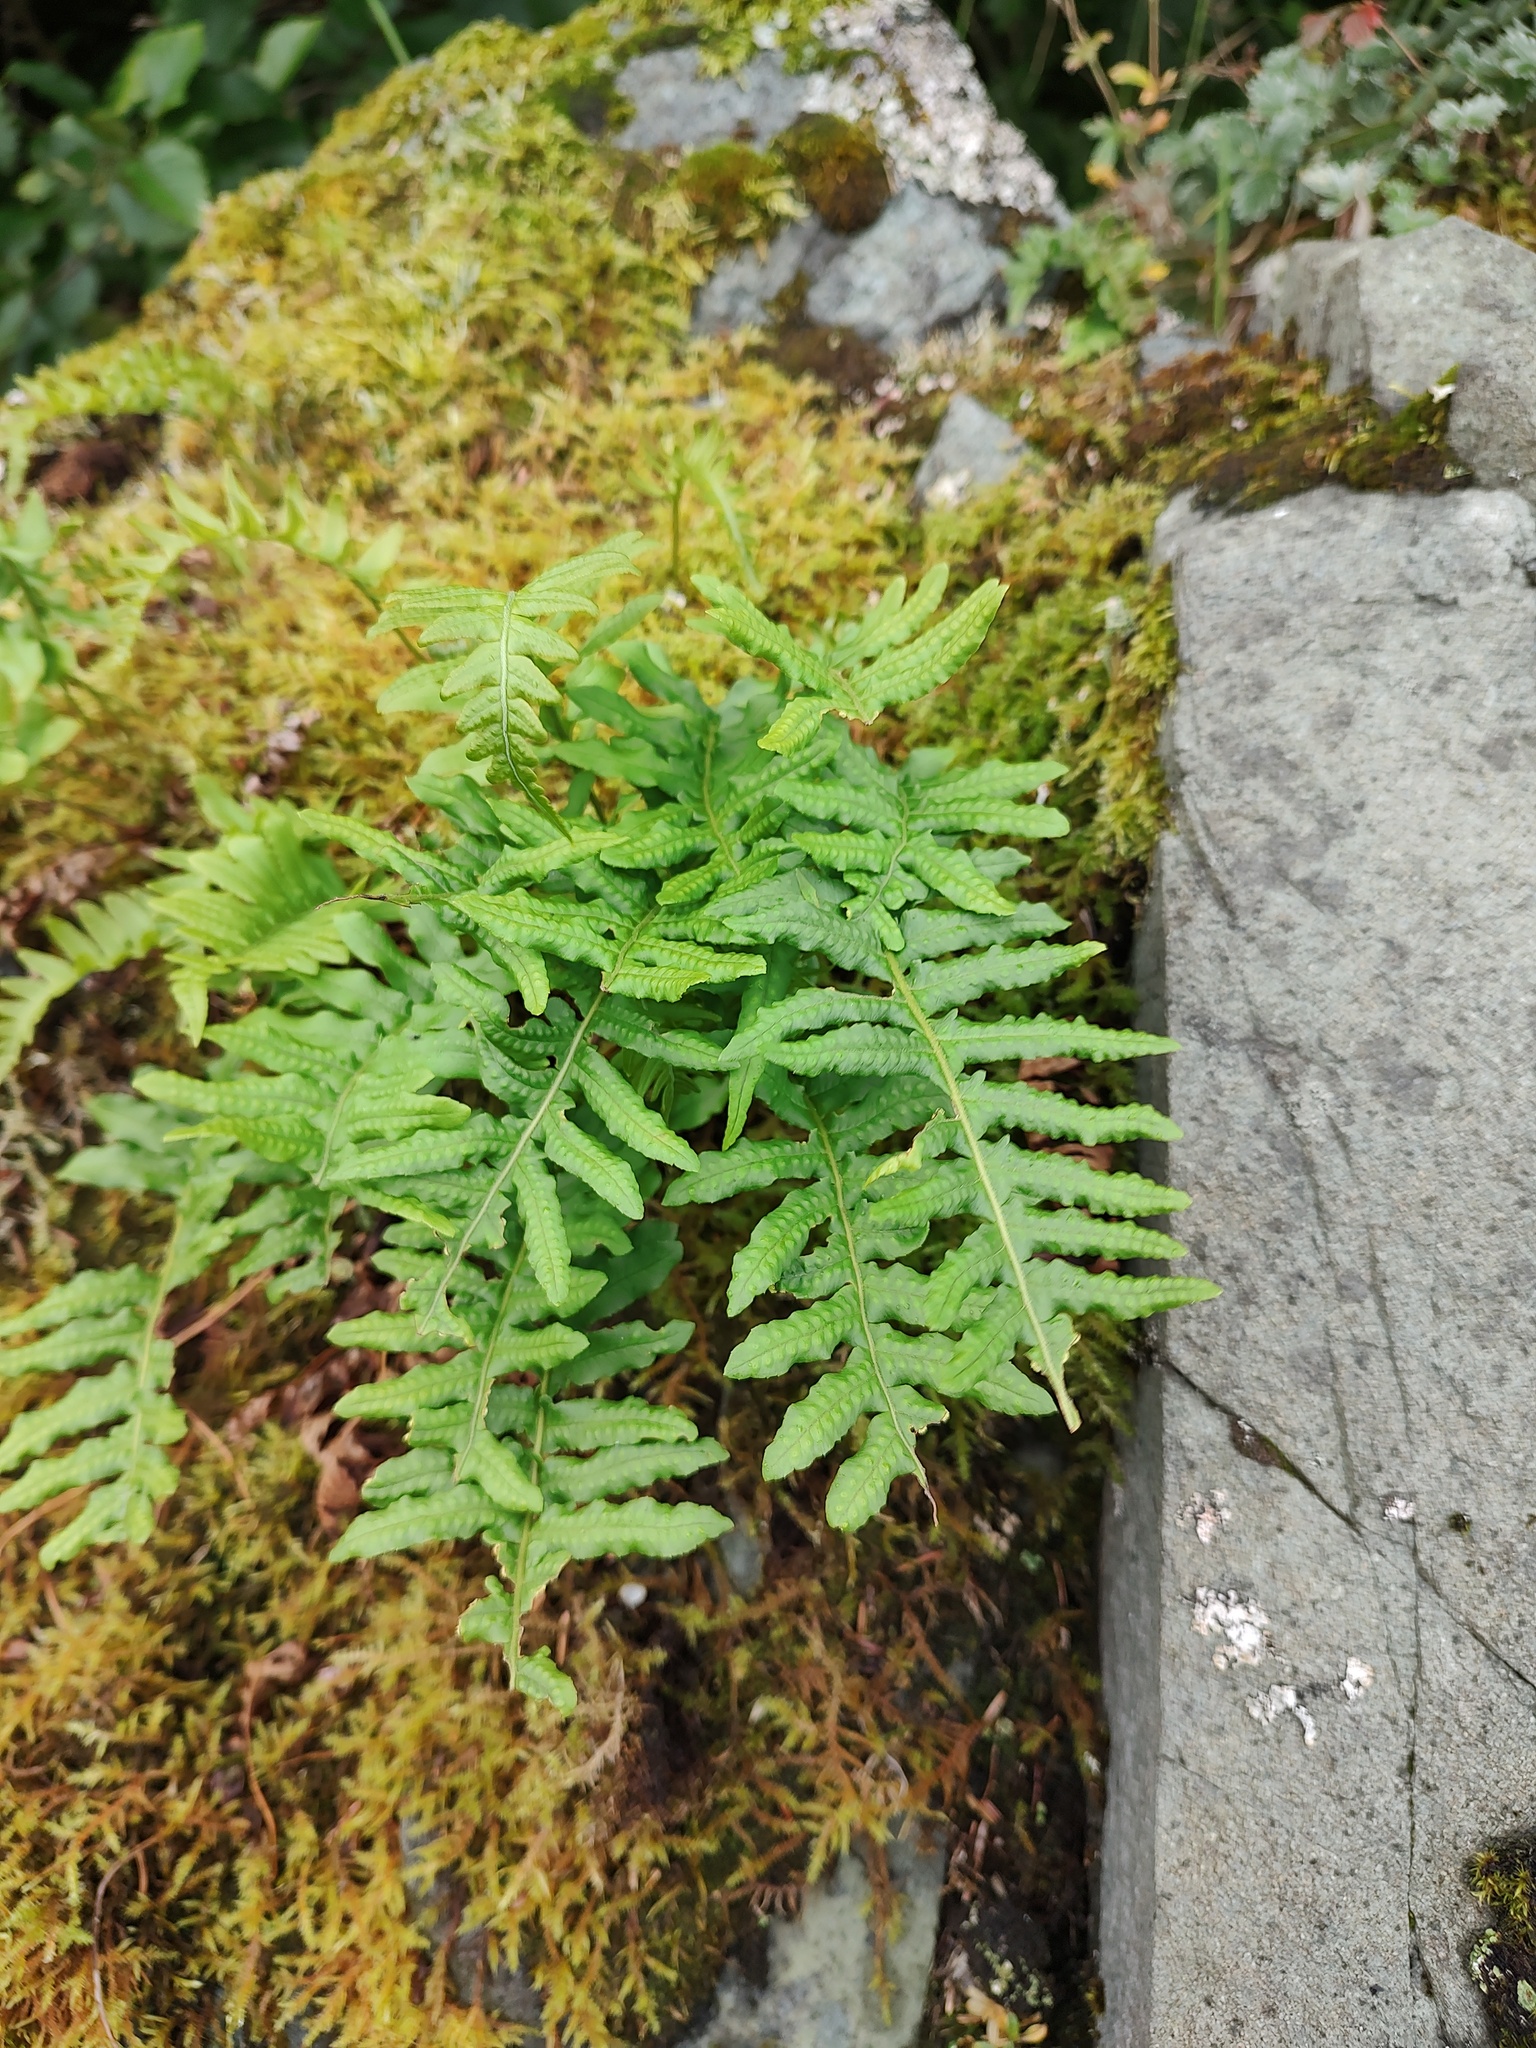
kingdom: Plantae
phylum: Tracheophyta
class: Polypodiopsida
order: Polypodiales
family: Polypodiaceae
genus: Polypodium
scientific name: Polypodium glycyrrhiza
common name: Licorice fern
